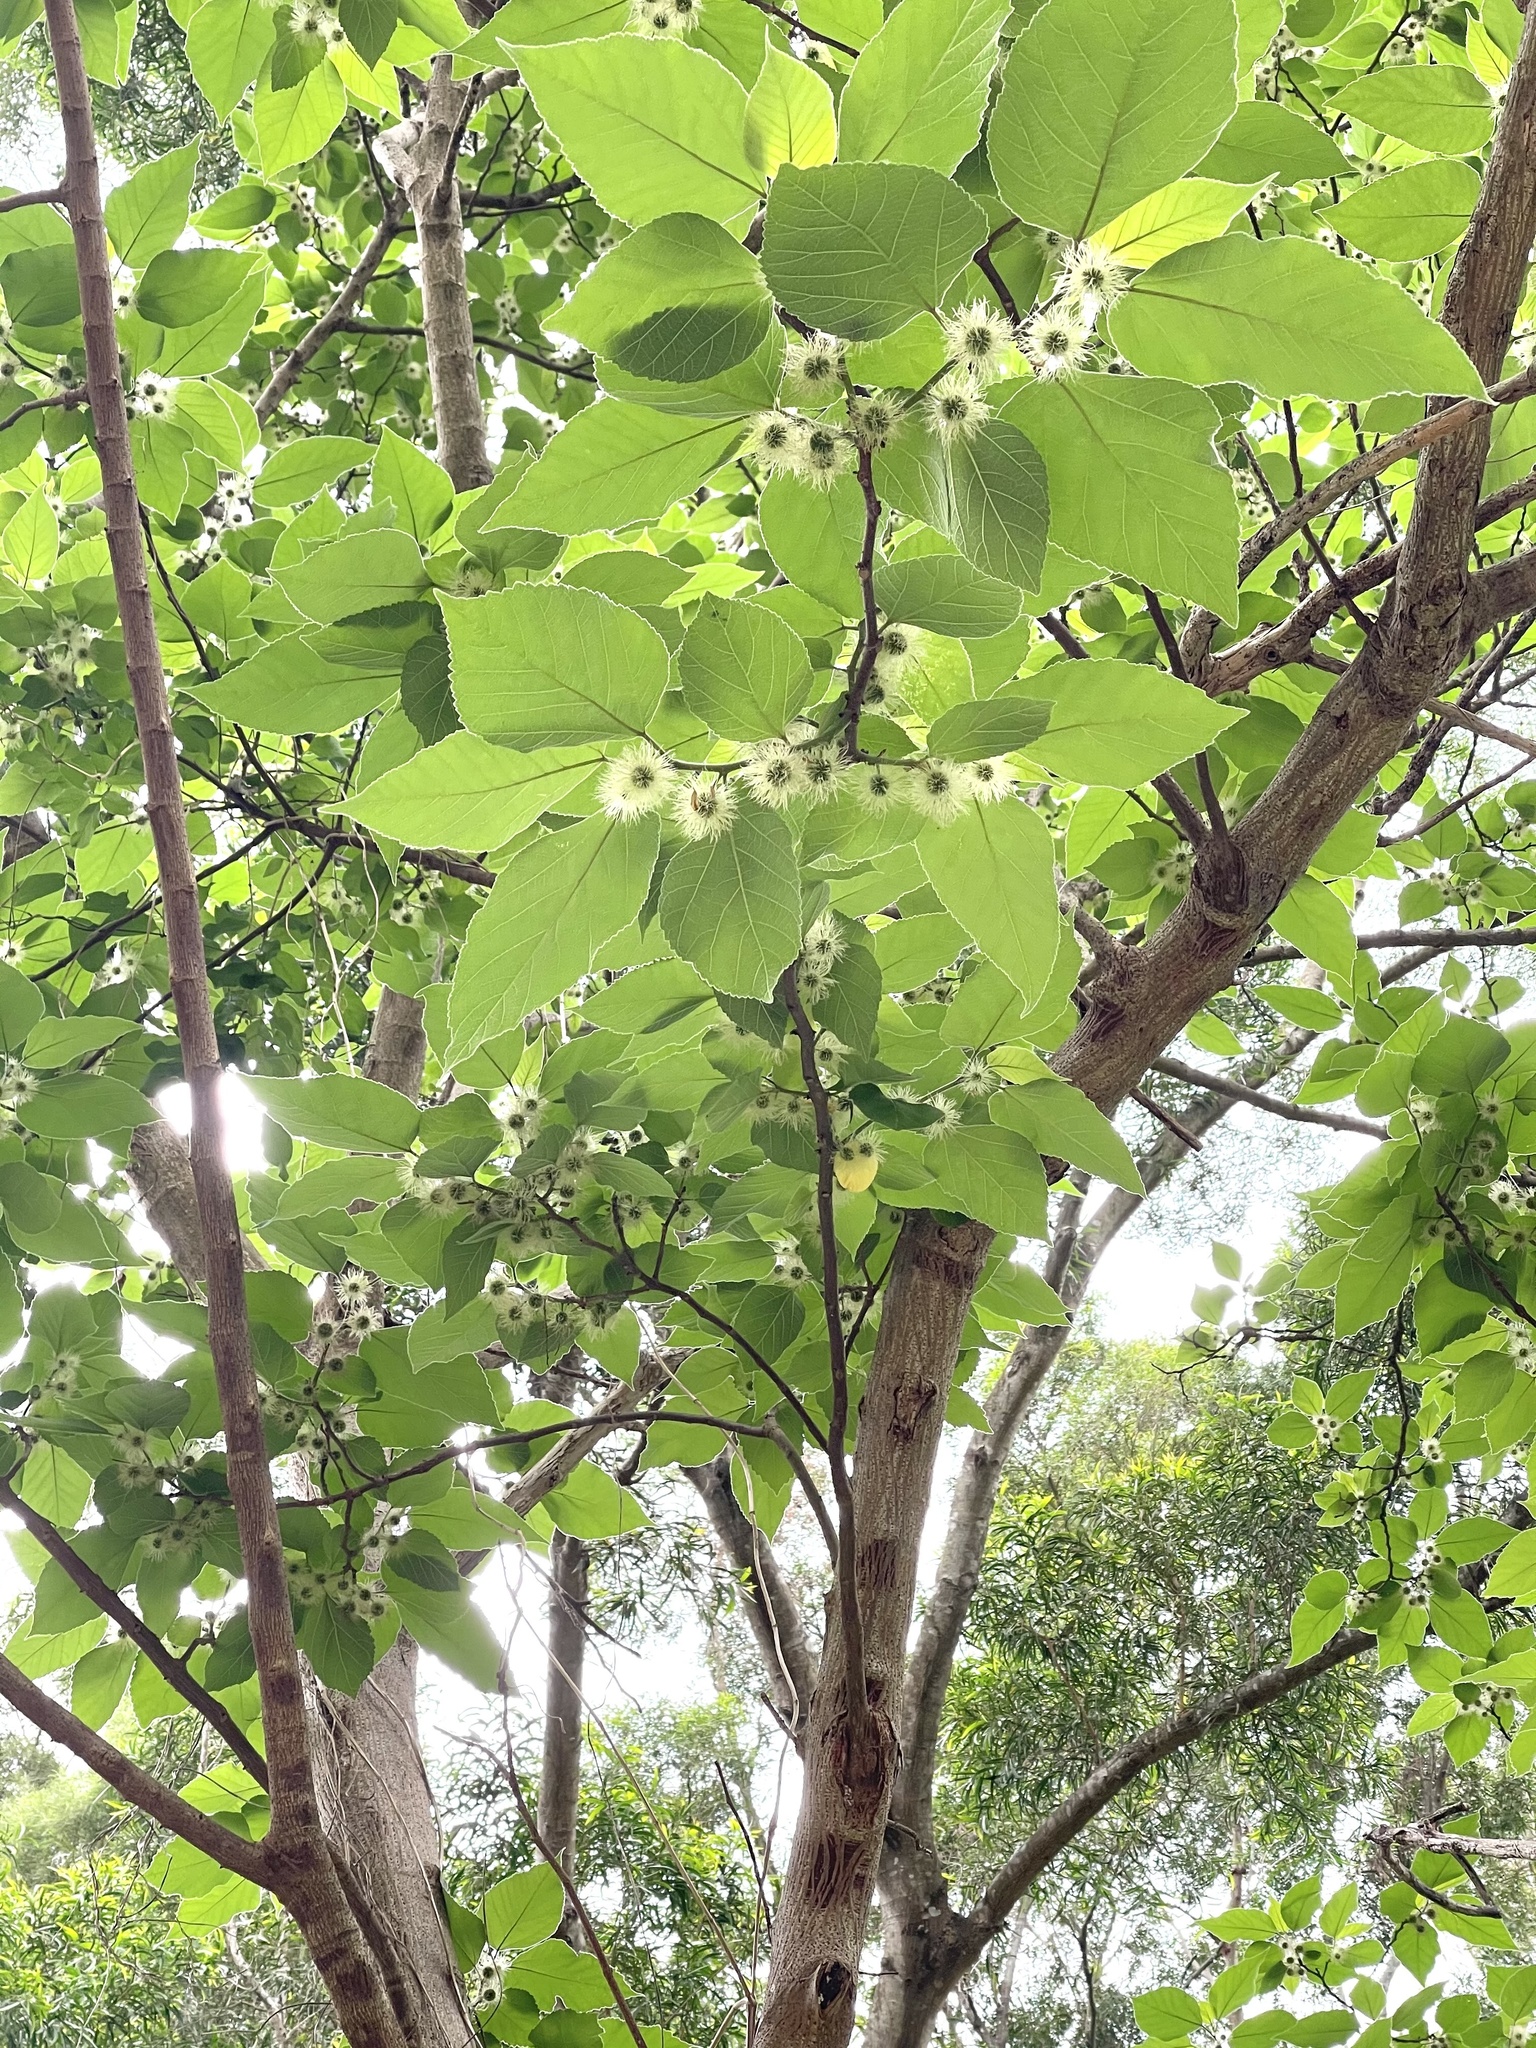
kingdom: Plantae
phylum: Tracheophyta
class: Magnoliopsida
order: Rosales
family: Moraceae
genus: Broussonetia
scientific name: Broussonetia papyrifera
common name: Paper mulberry
